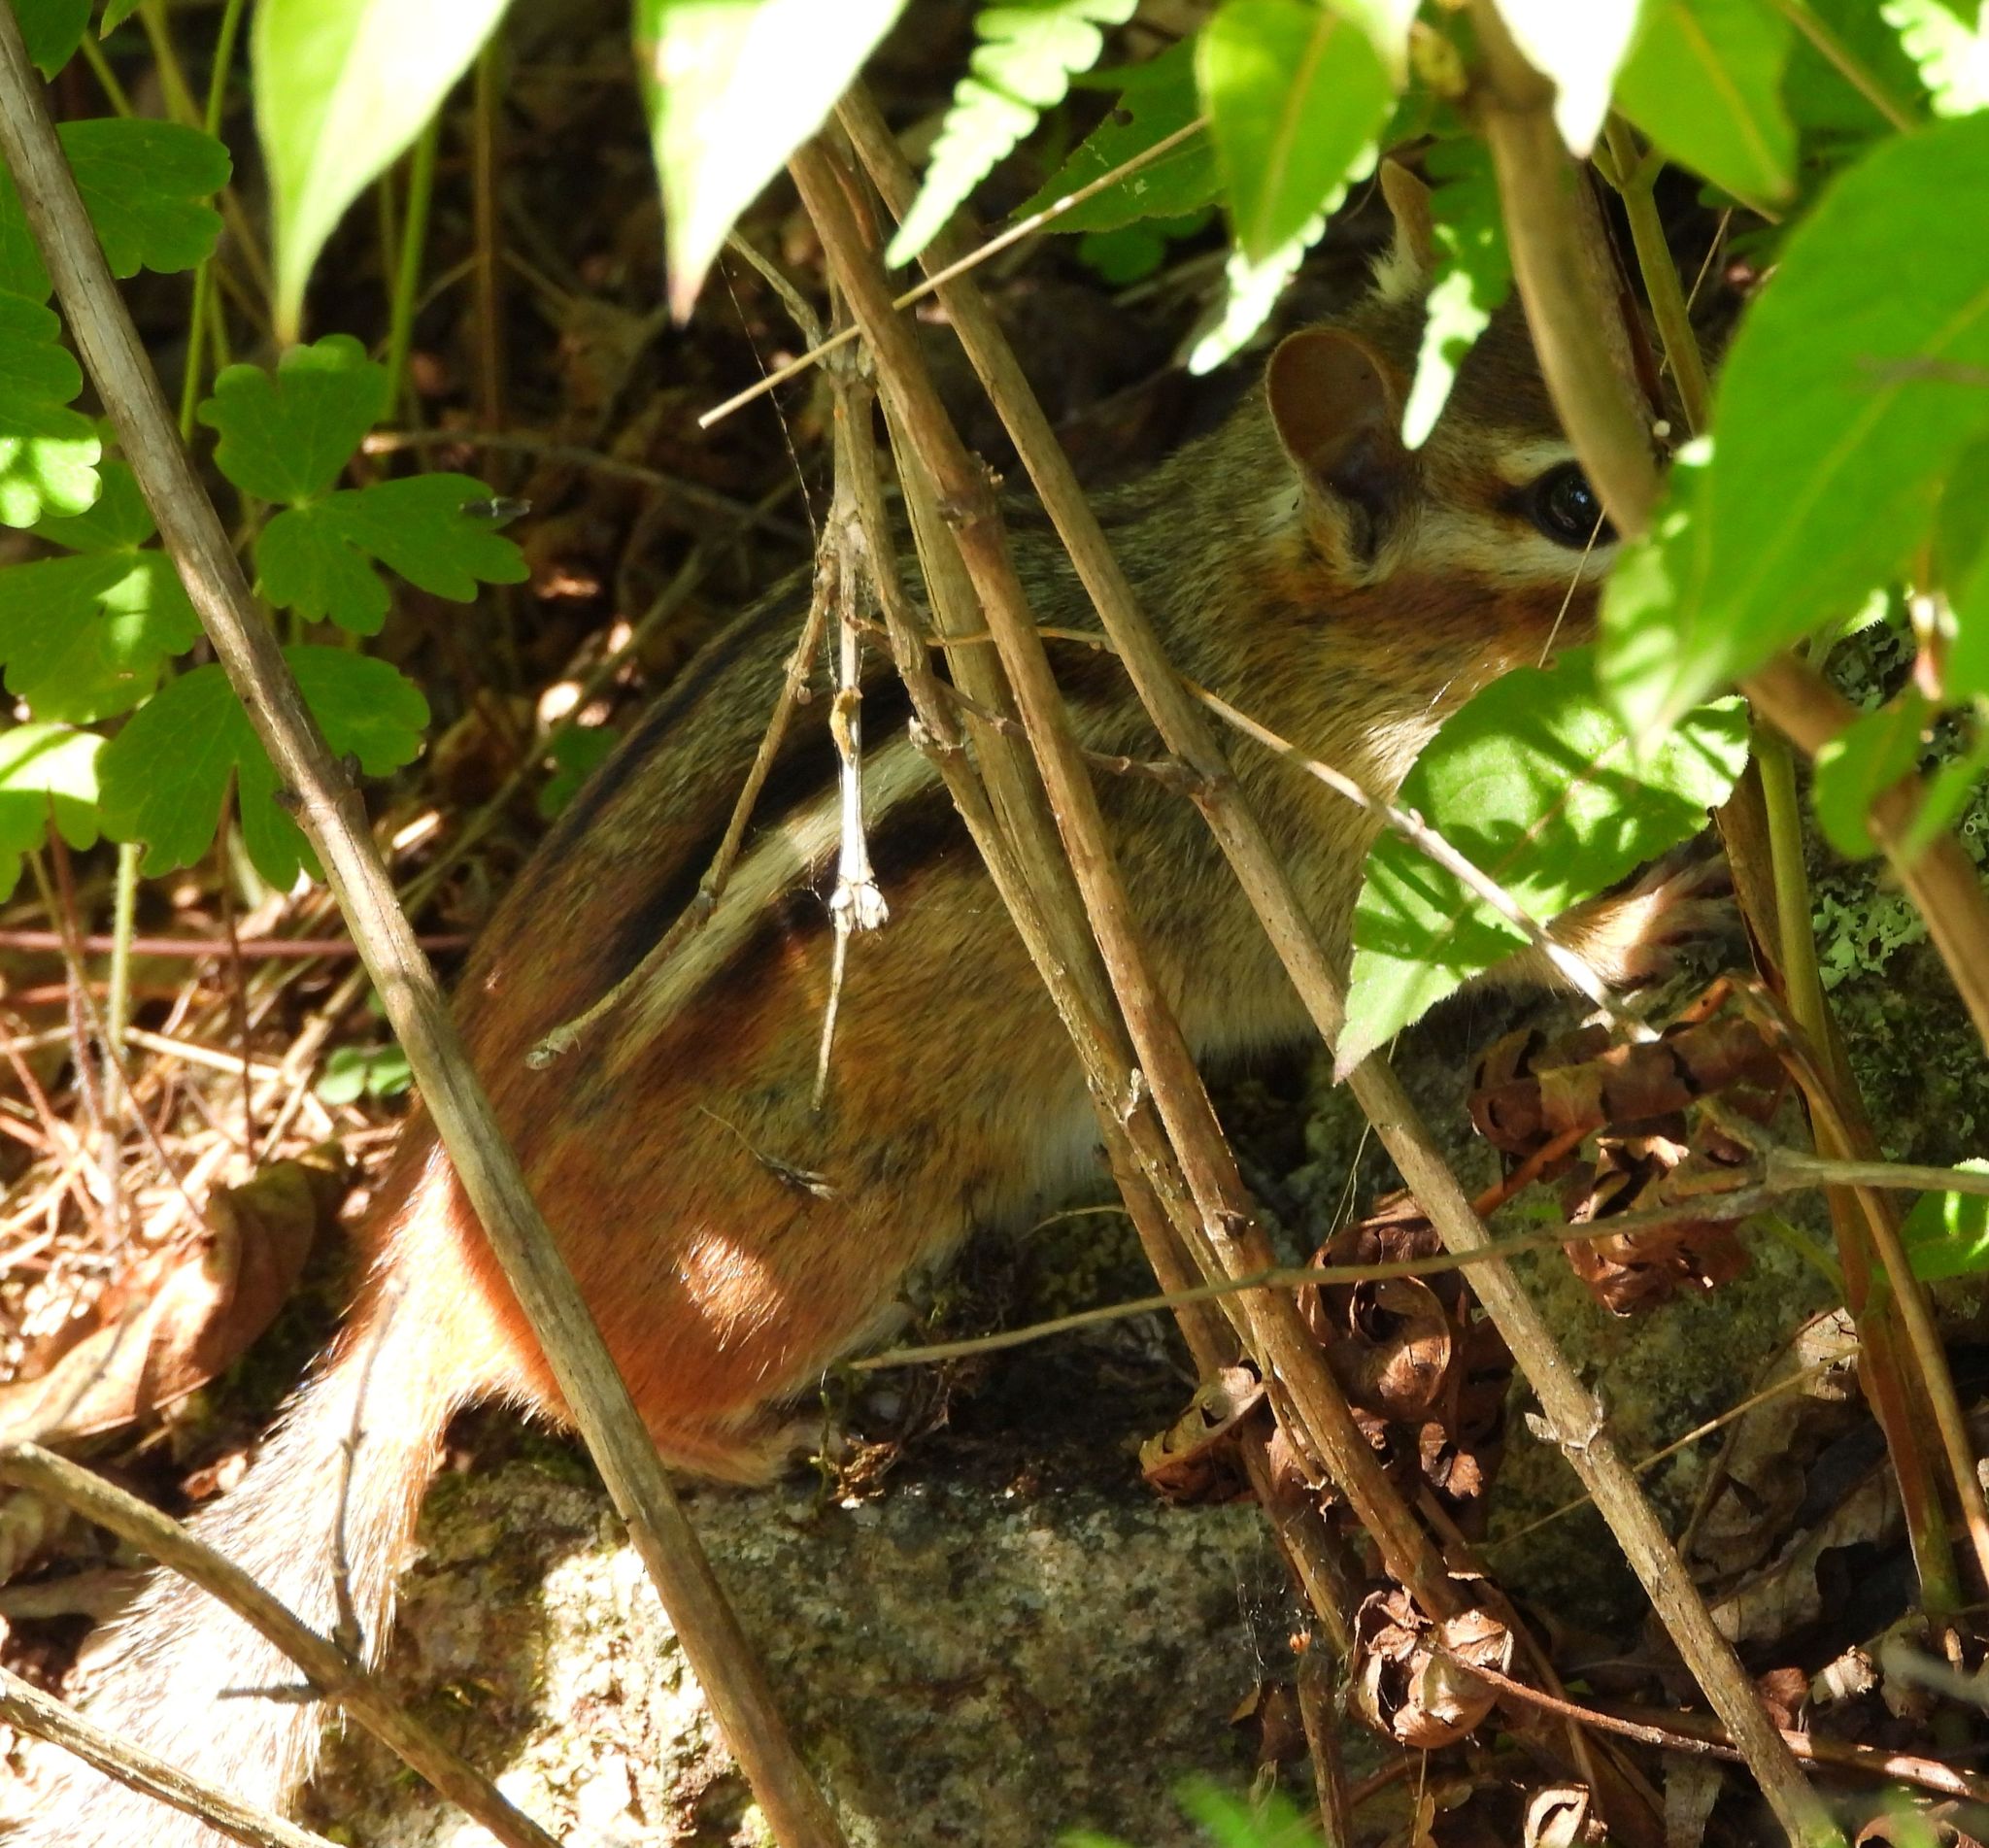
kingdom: Animalia
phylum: Chordata
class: Mammalia
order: Rodentia
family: Sciuridae
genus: Tamias
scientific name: Tamias striatus
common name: Eastern chipmunk
